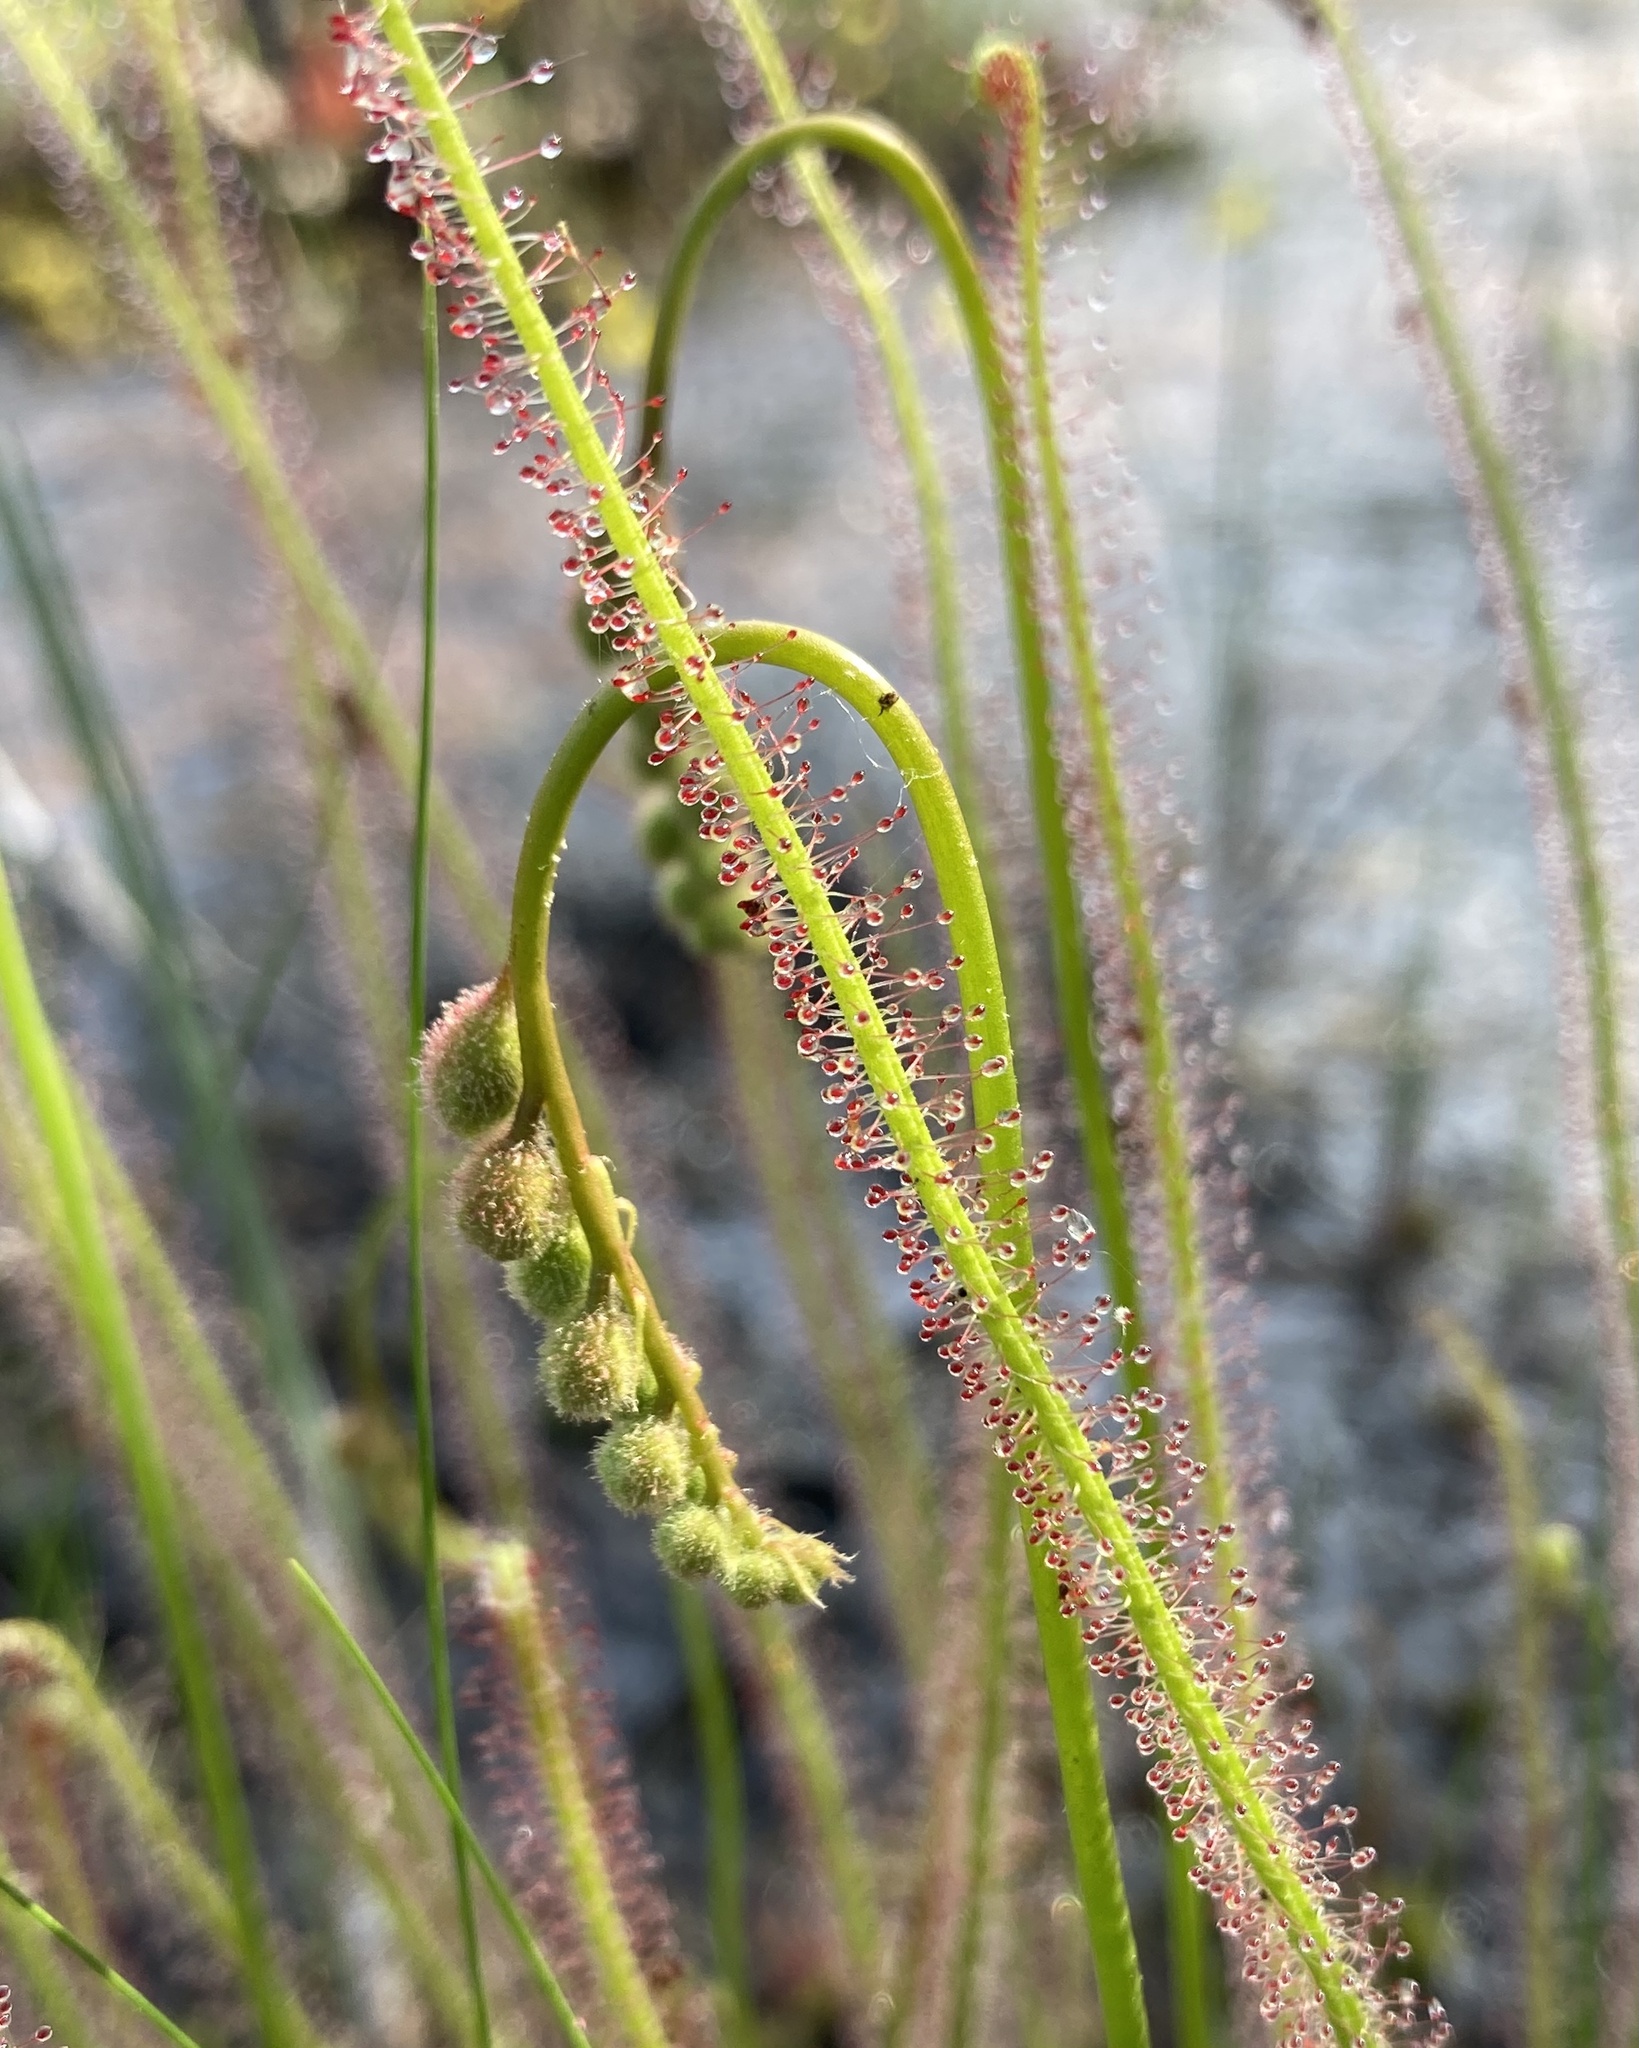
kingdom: Plantae
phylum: Tracheophyta
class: Magnoliopsida
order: Caryophyllales
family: Droseraceae
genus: Drosera
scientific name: Drosera filiformis
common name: Dew-thread
